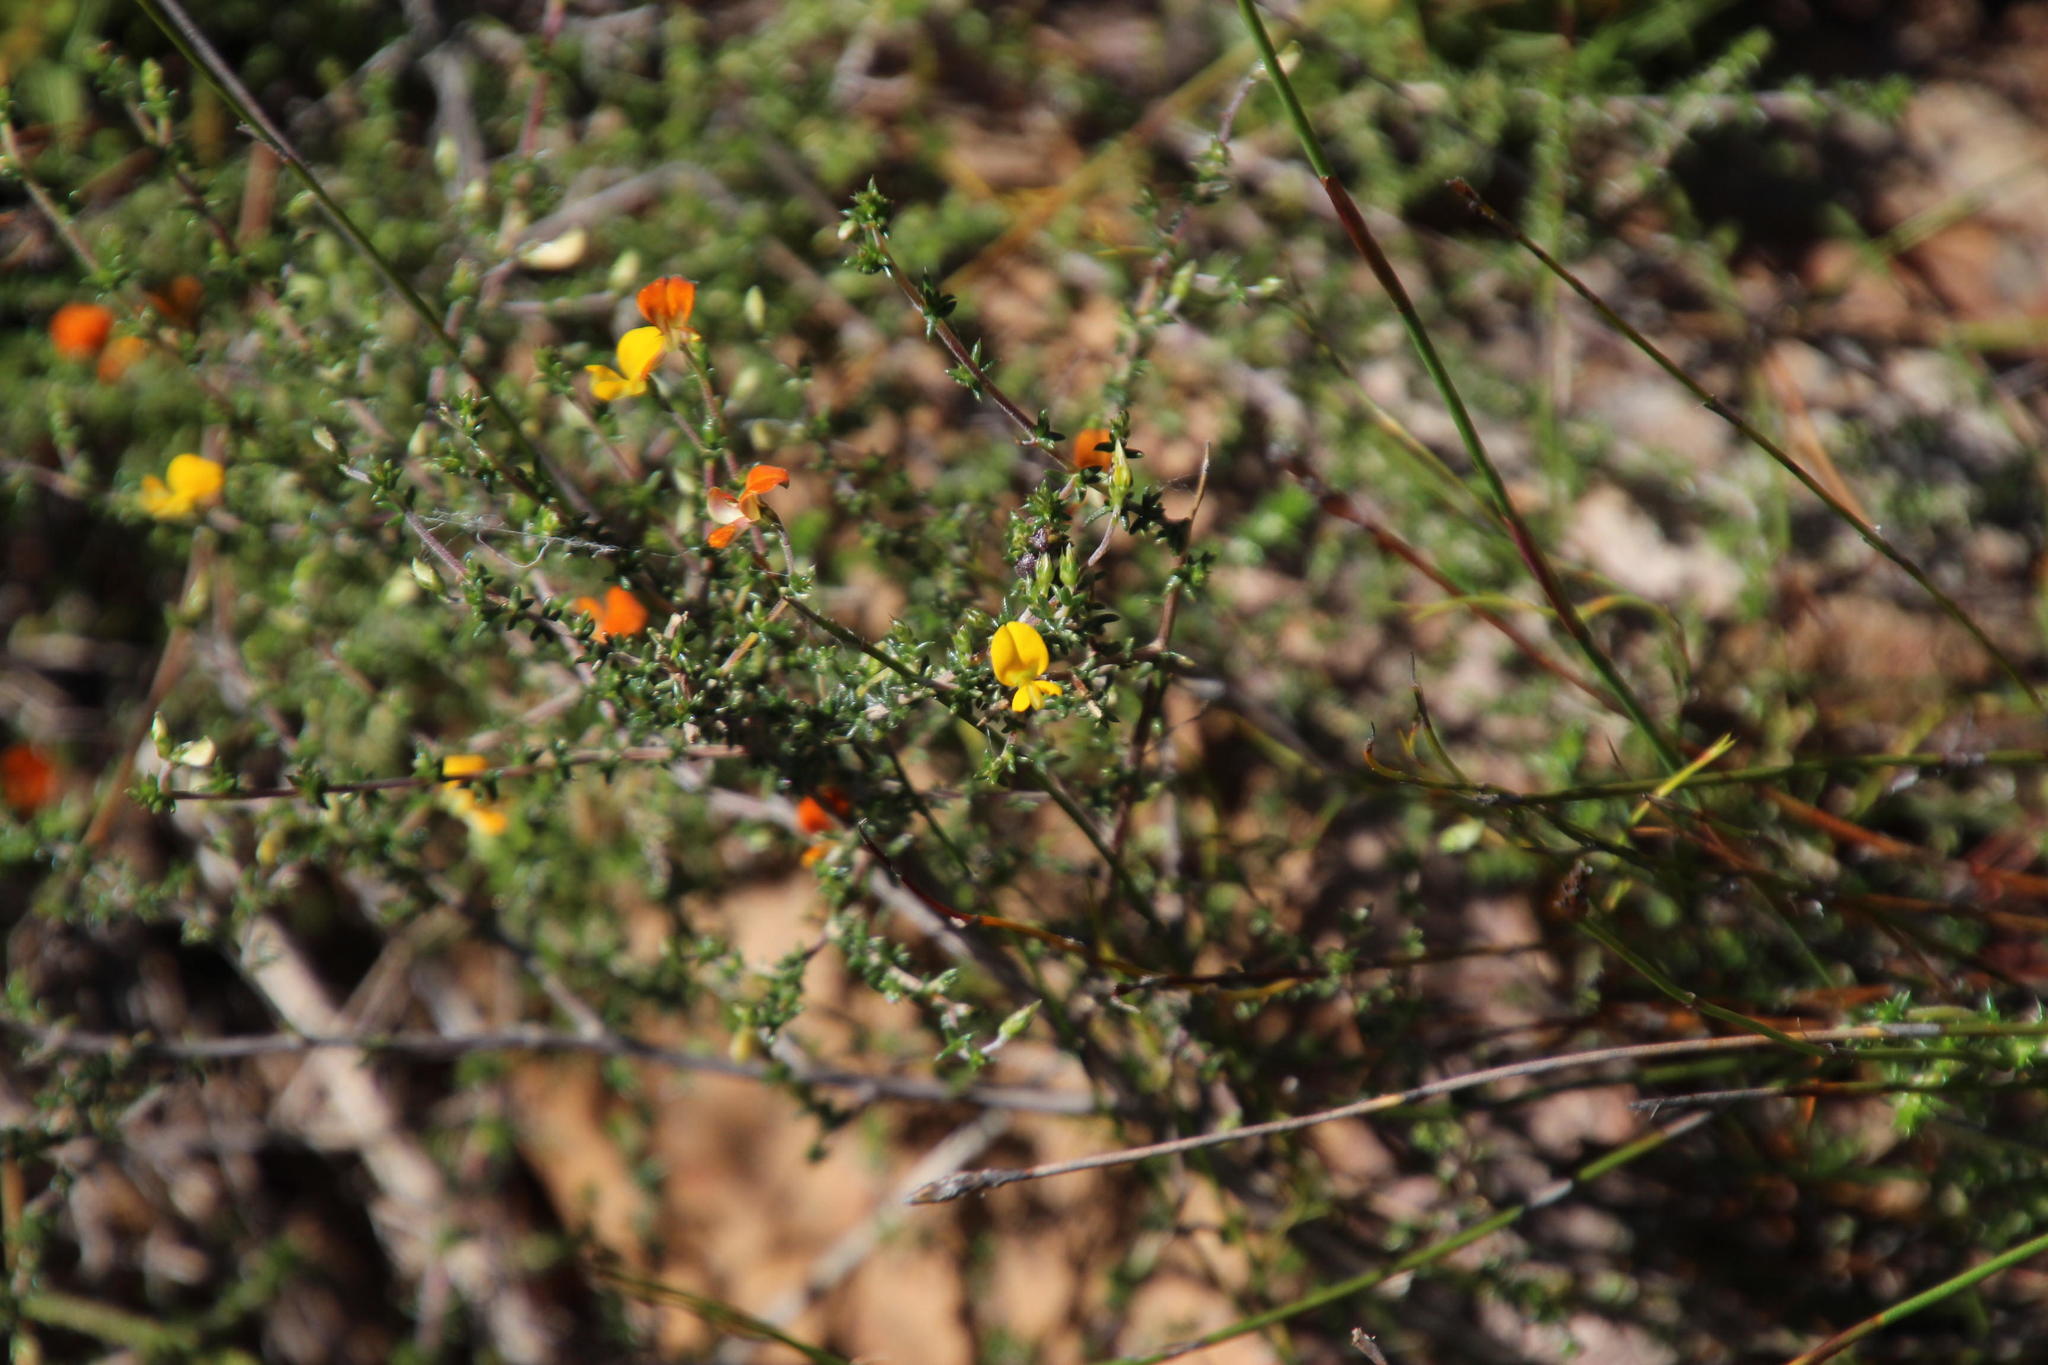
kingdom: Plantae
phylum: Tracheophyta
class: Magnoliopsida
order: Fabales
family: Fabaceae
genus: Aspalathus
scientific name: Aspalathus divaricata
